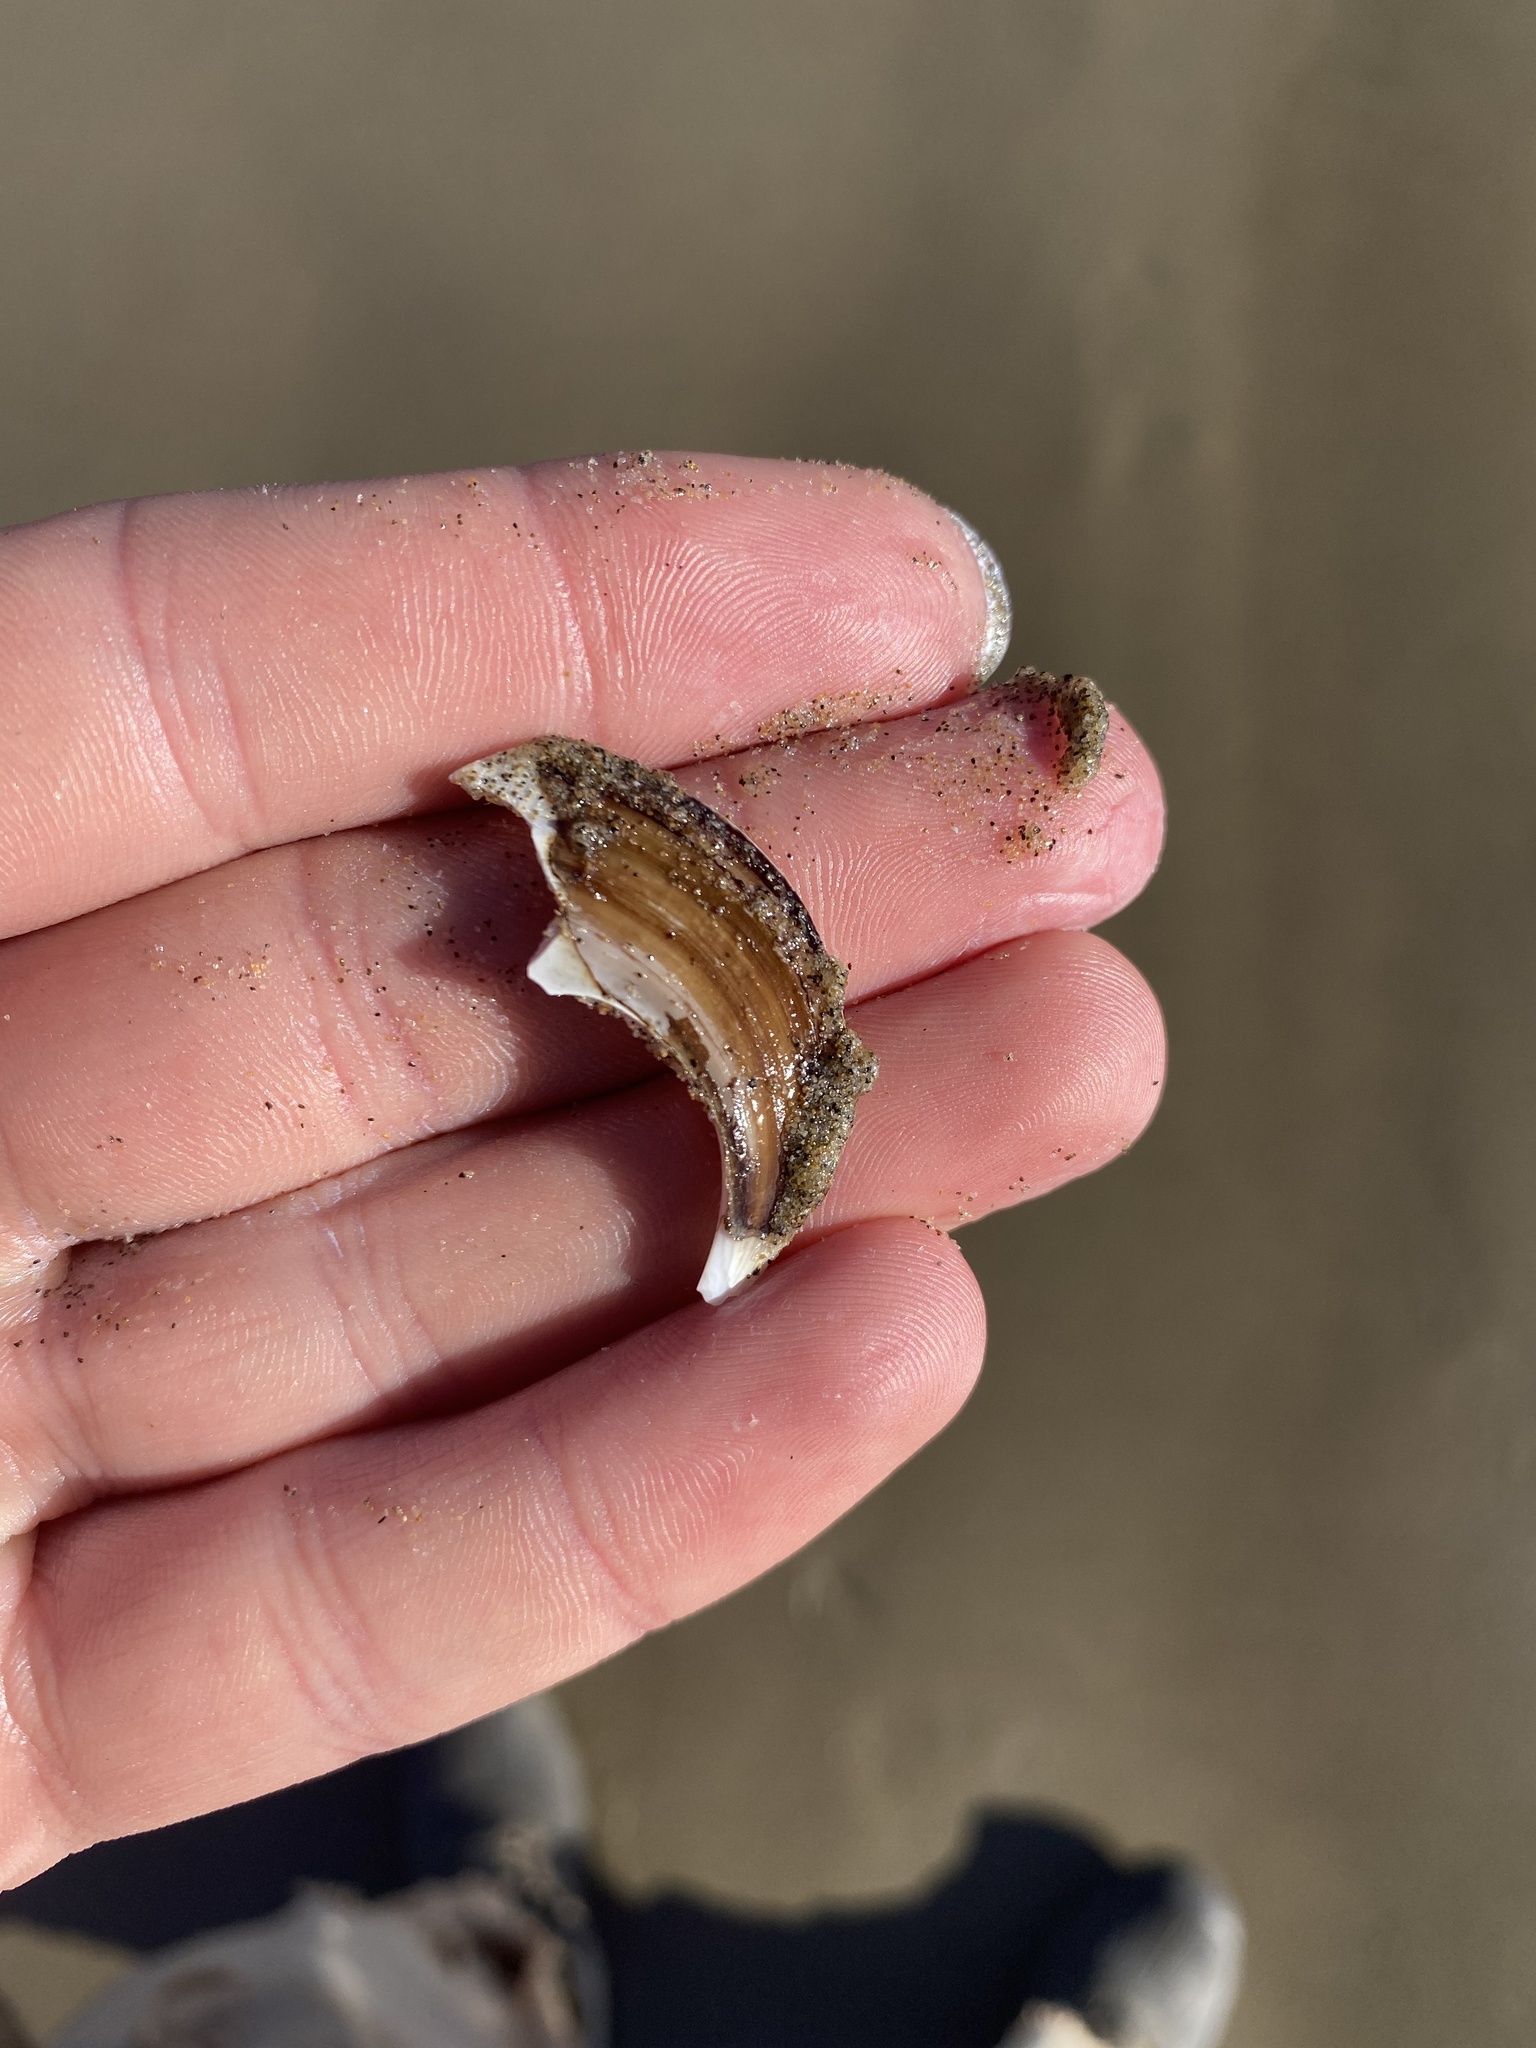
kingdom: Animalia
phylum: Mollusca
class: Bivalvia
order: Cardiida
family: Psammobiidae
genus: Nuttallia
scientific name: Nuttallia obscurata
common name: Purple mahogany-clam
